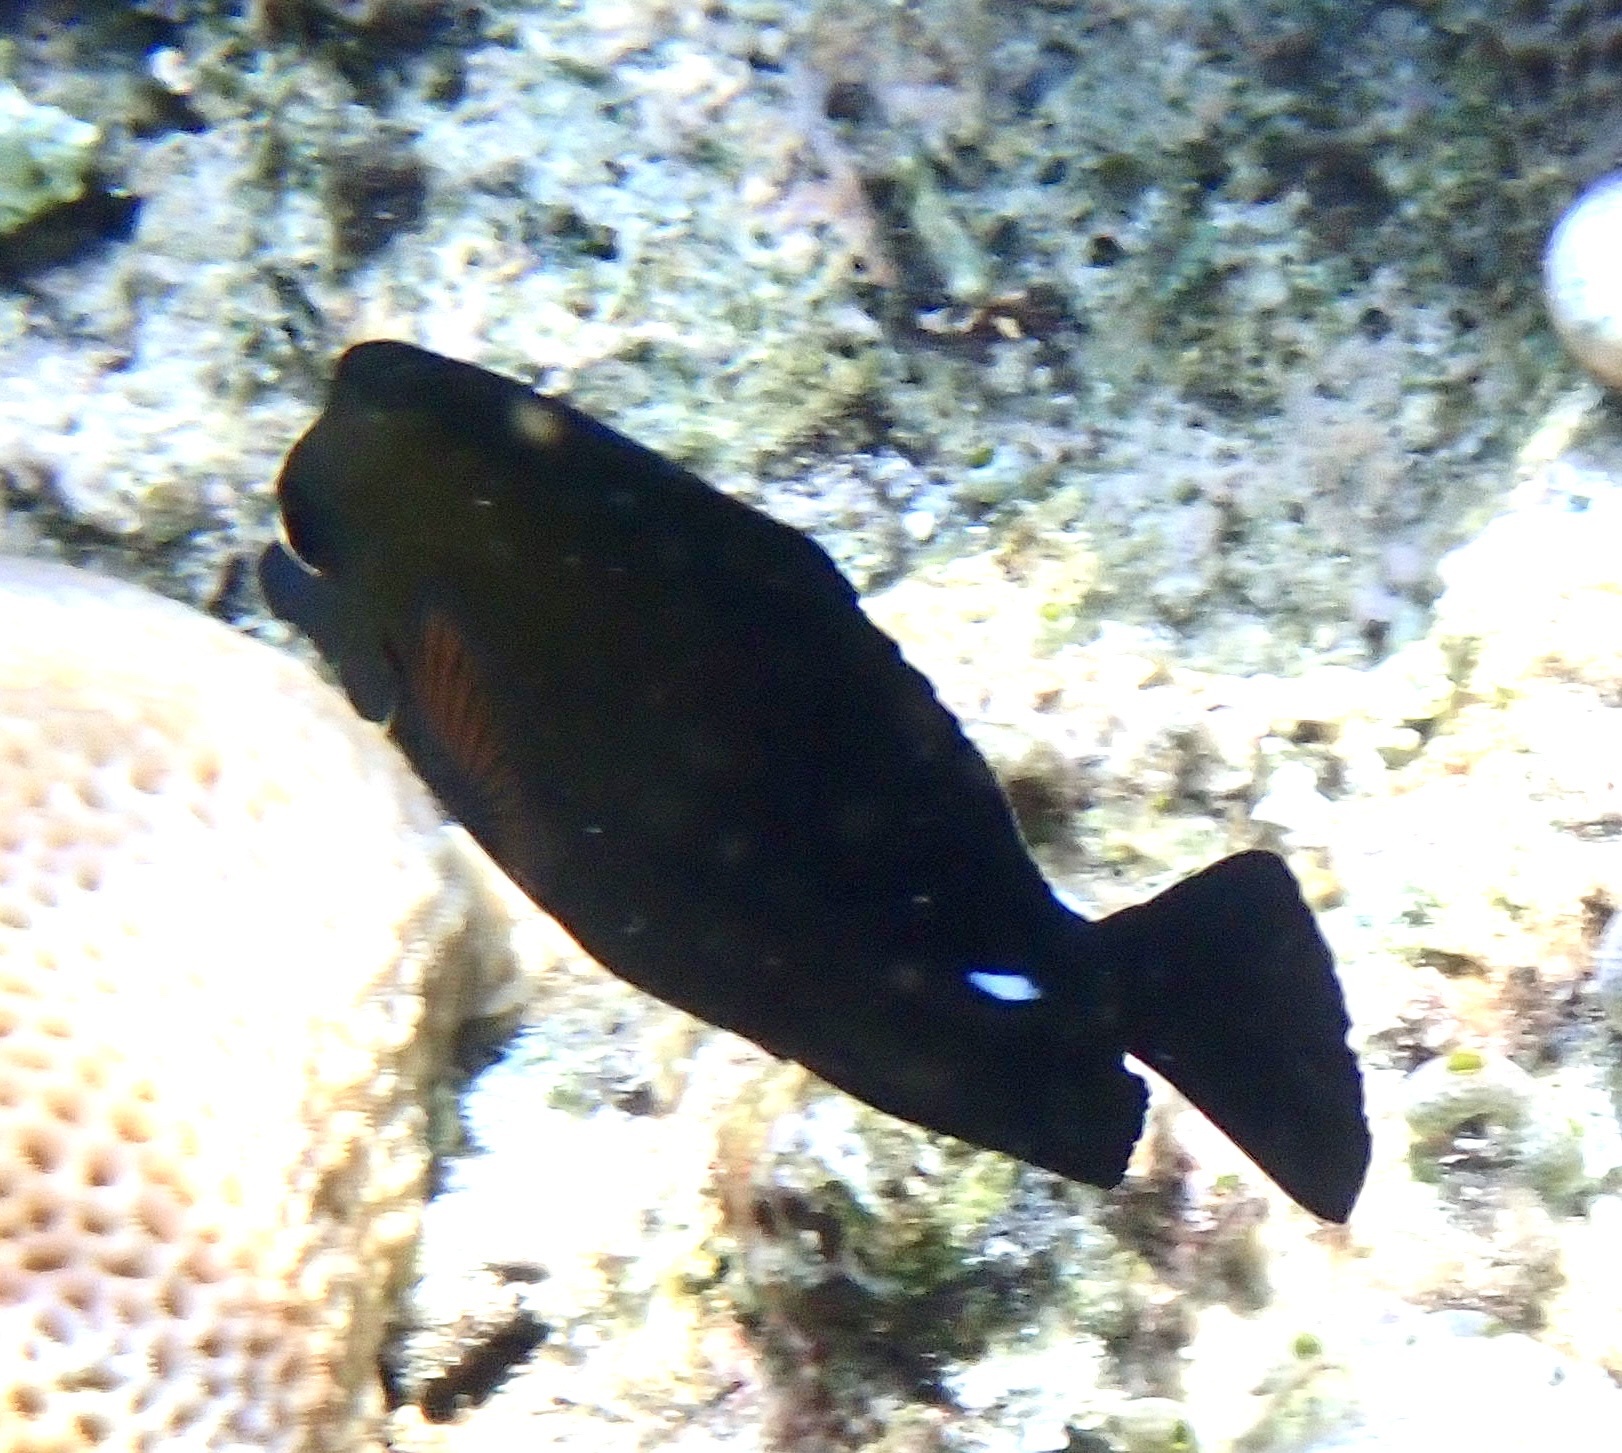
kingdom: Animalia
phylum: Chordata
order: Perciformes
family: Acanthuridae
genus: Zebrasoma
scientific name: Zebrasoma scopas
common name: Twotone tang
